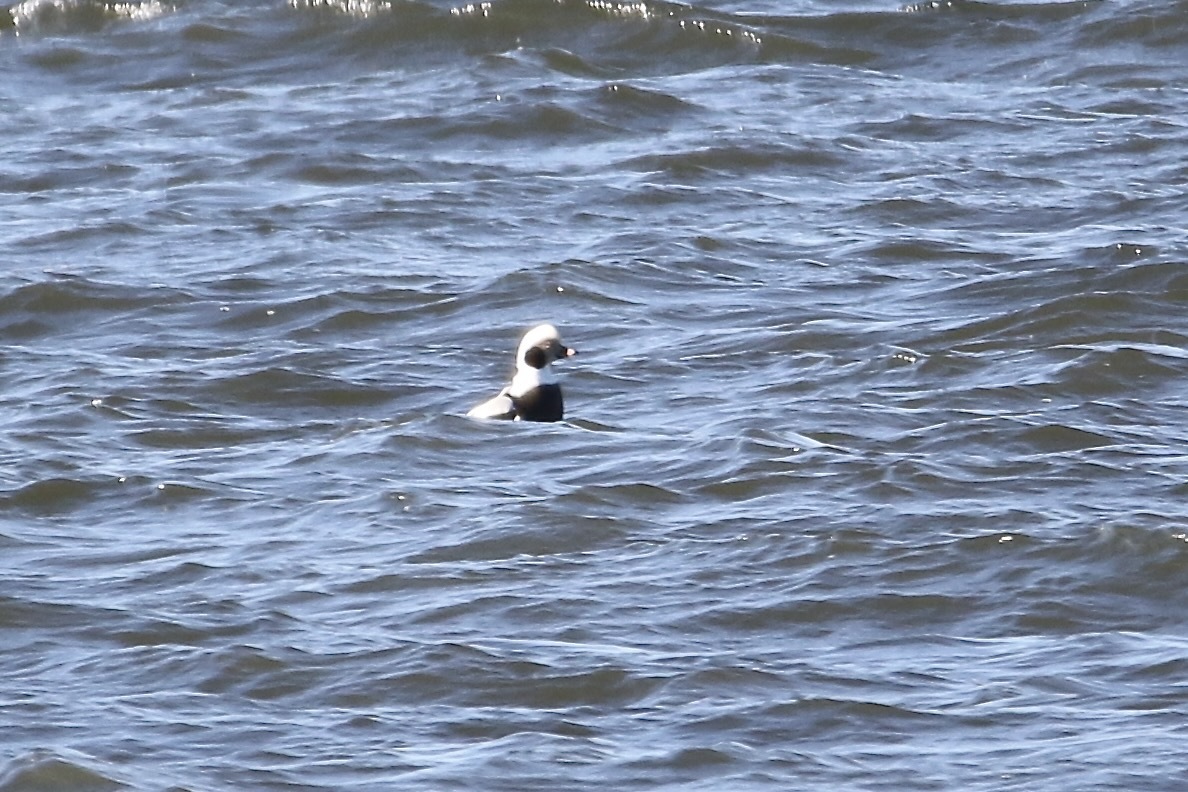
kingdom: Animalia
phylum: Chordata
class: Aves
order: Anseriformes
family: Anatidae
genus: Clangula
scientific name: Clangula hyemalis
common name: Long-tailed duck
